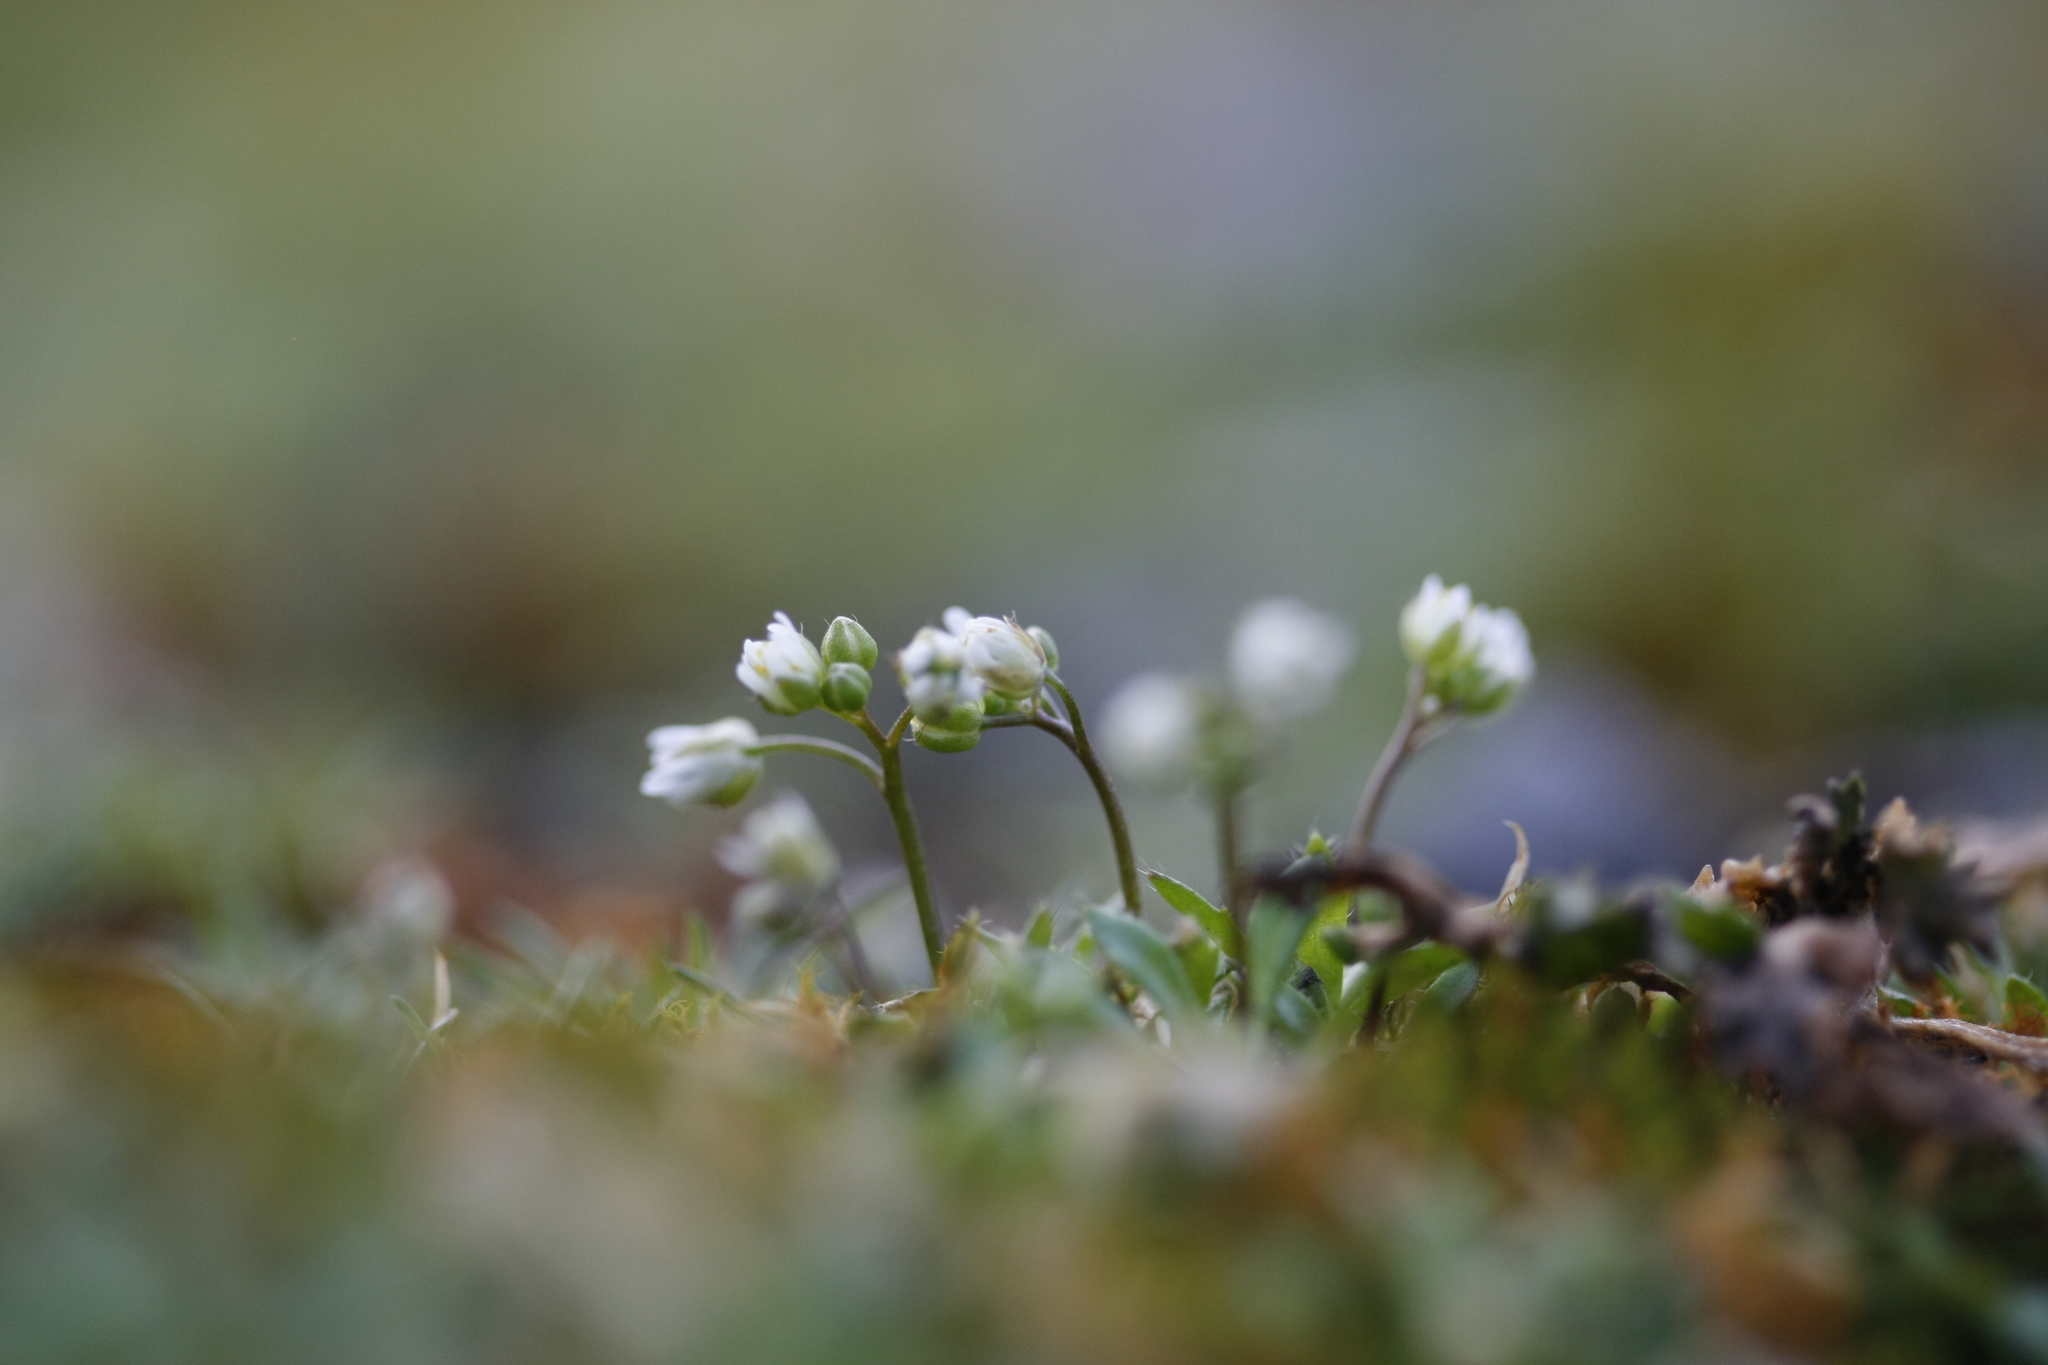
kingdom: Plantae
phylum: Tracheophyta
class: Magnoliopsida
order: Brassicales
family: Brassicaceae
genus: Draba
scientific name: Draba verna
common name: Spring draba
